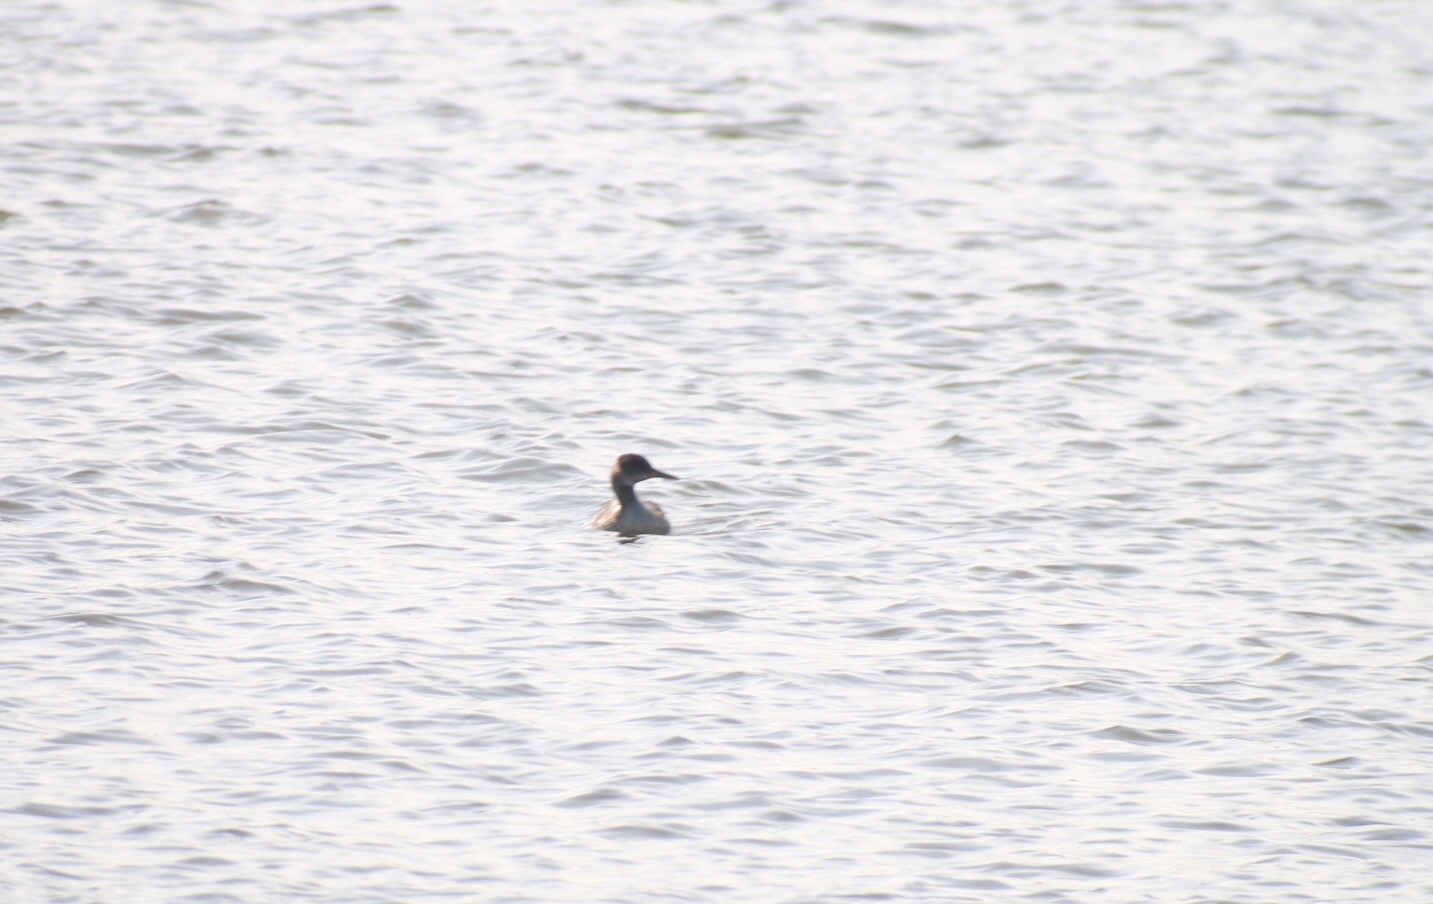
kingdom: Animalia
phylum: Chordata
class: Aves
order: Podicipediformes
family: Podicipedidae
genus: Podiceps
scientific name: Podiceps grisegena
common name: Red-necked grebe
